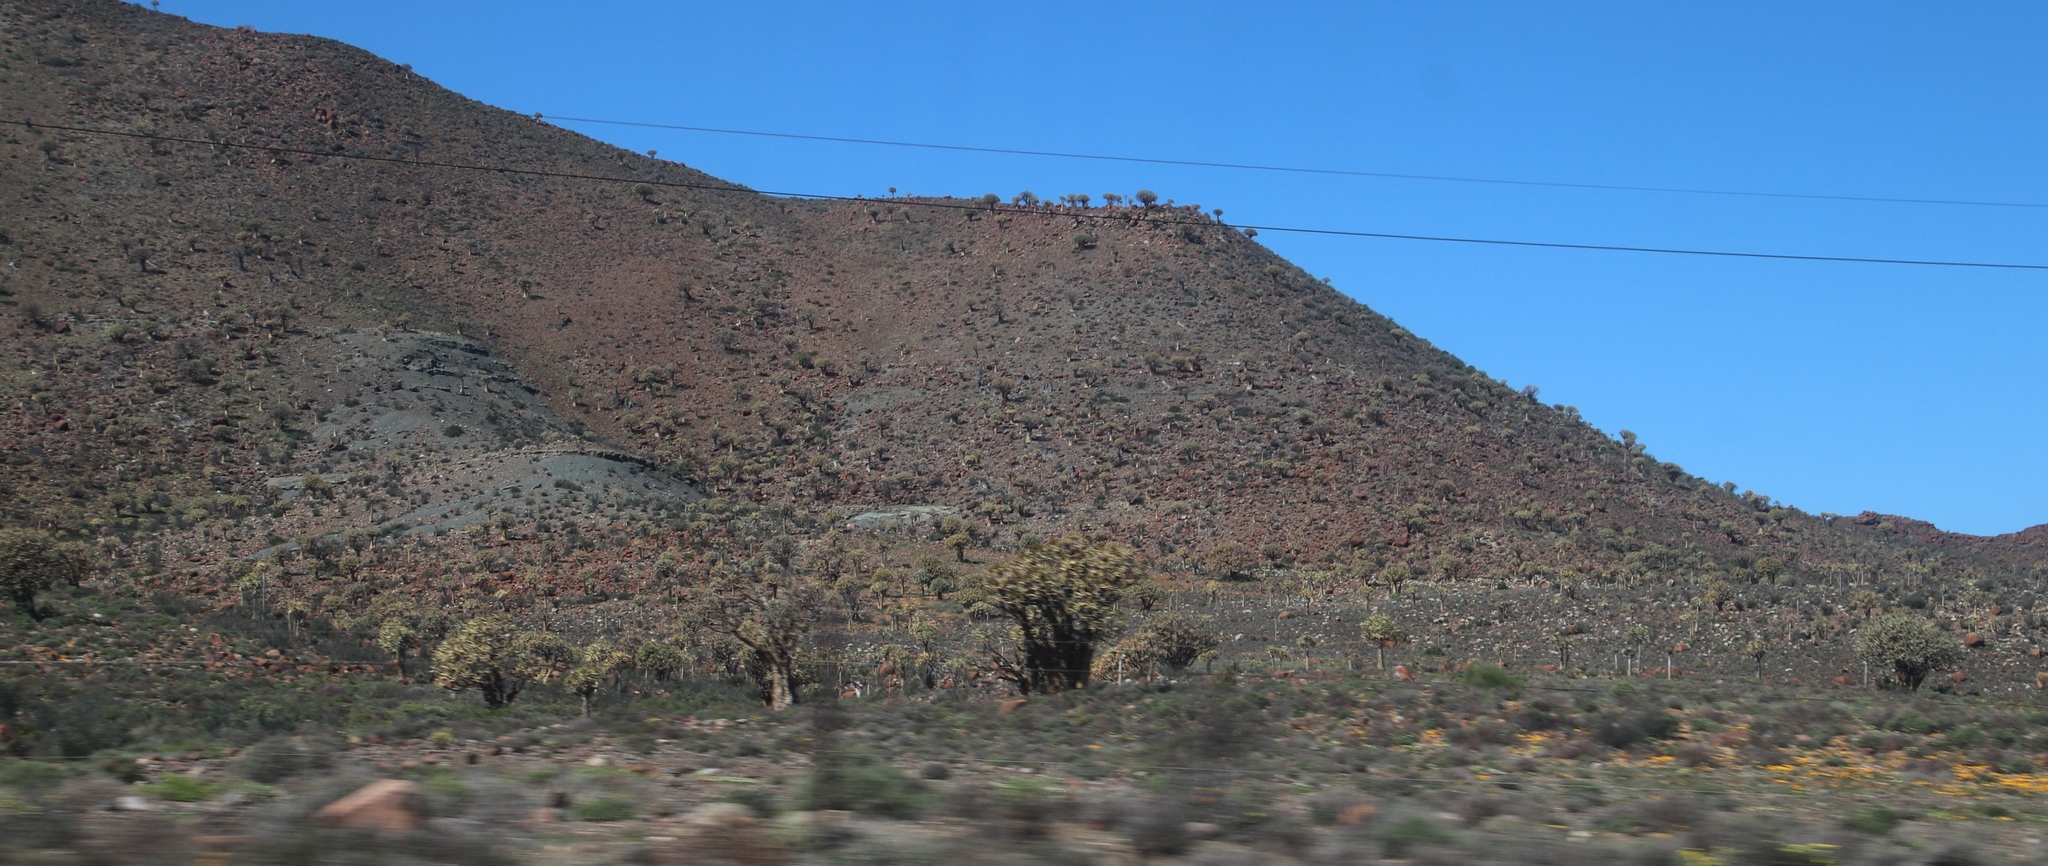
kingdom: Plantae
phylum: Tracheophyta
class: Liliopsida
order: Asparagales
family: Asphodelaceae
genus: Aloidendron
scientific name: Aloidendron dichotomum
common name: Quiver tree
